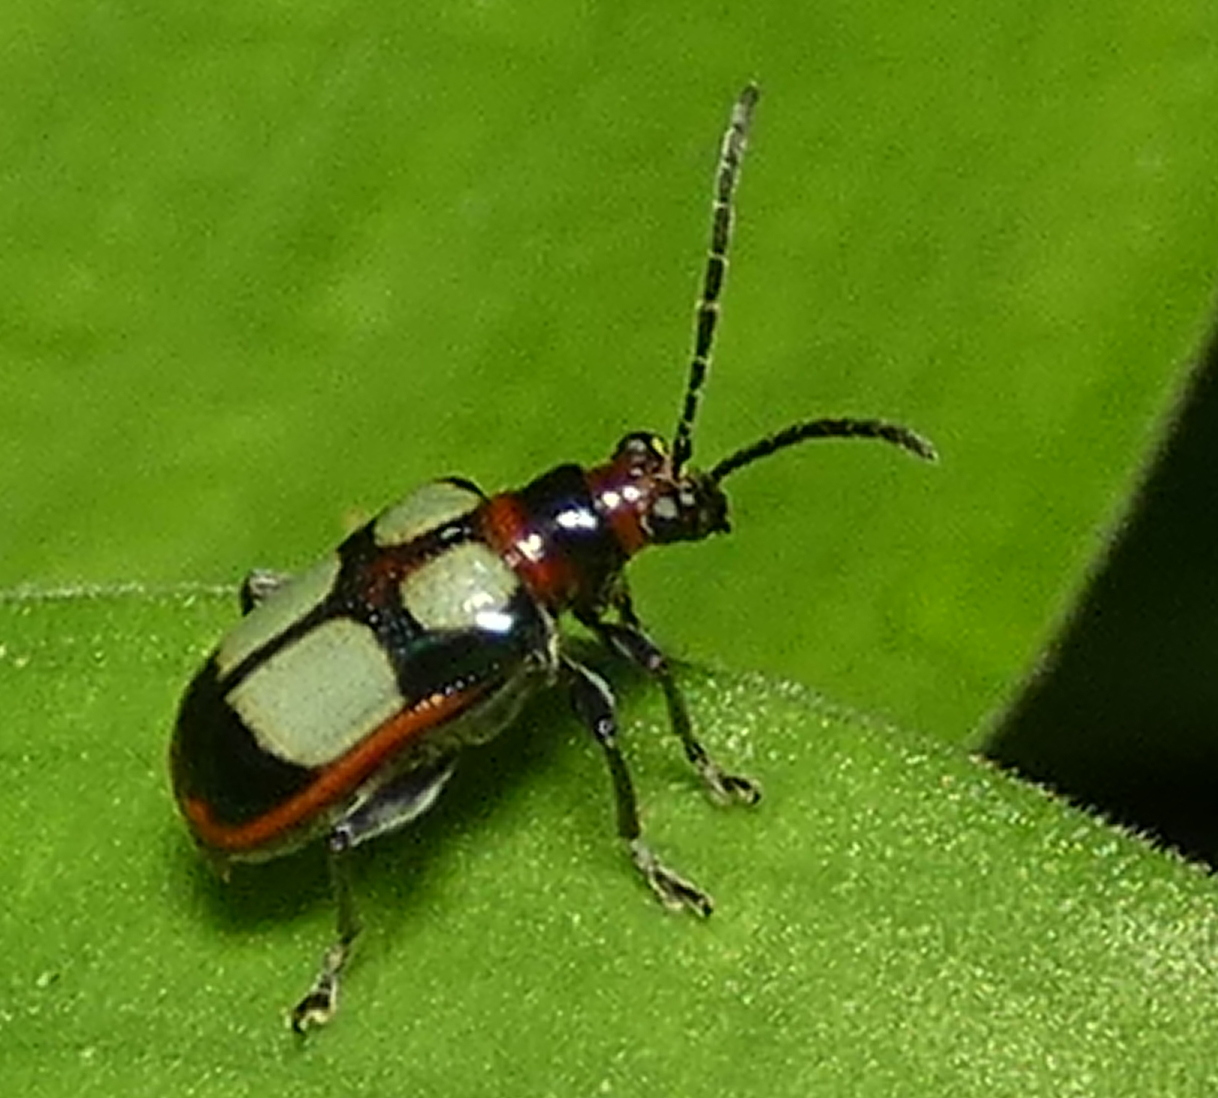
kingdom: Animalia
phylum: Arthropoda
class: Insecta
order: Coleoptera
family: Chrysomelidae
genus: Neolema
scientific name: Neolema
